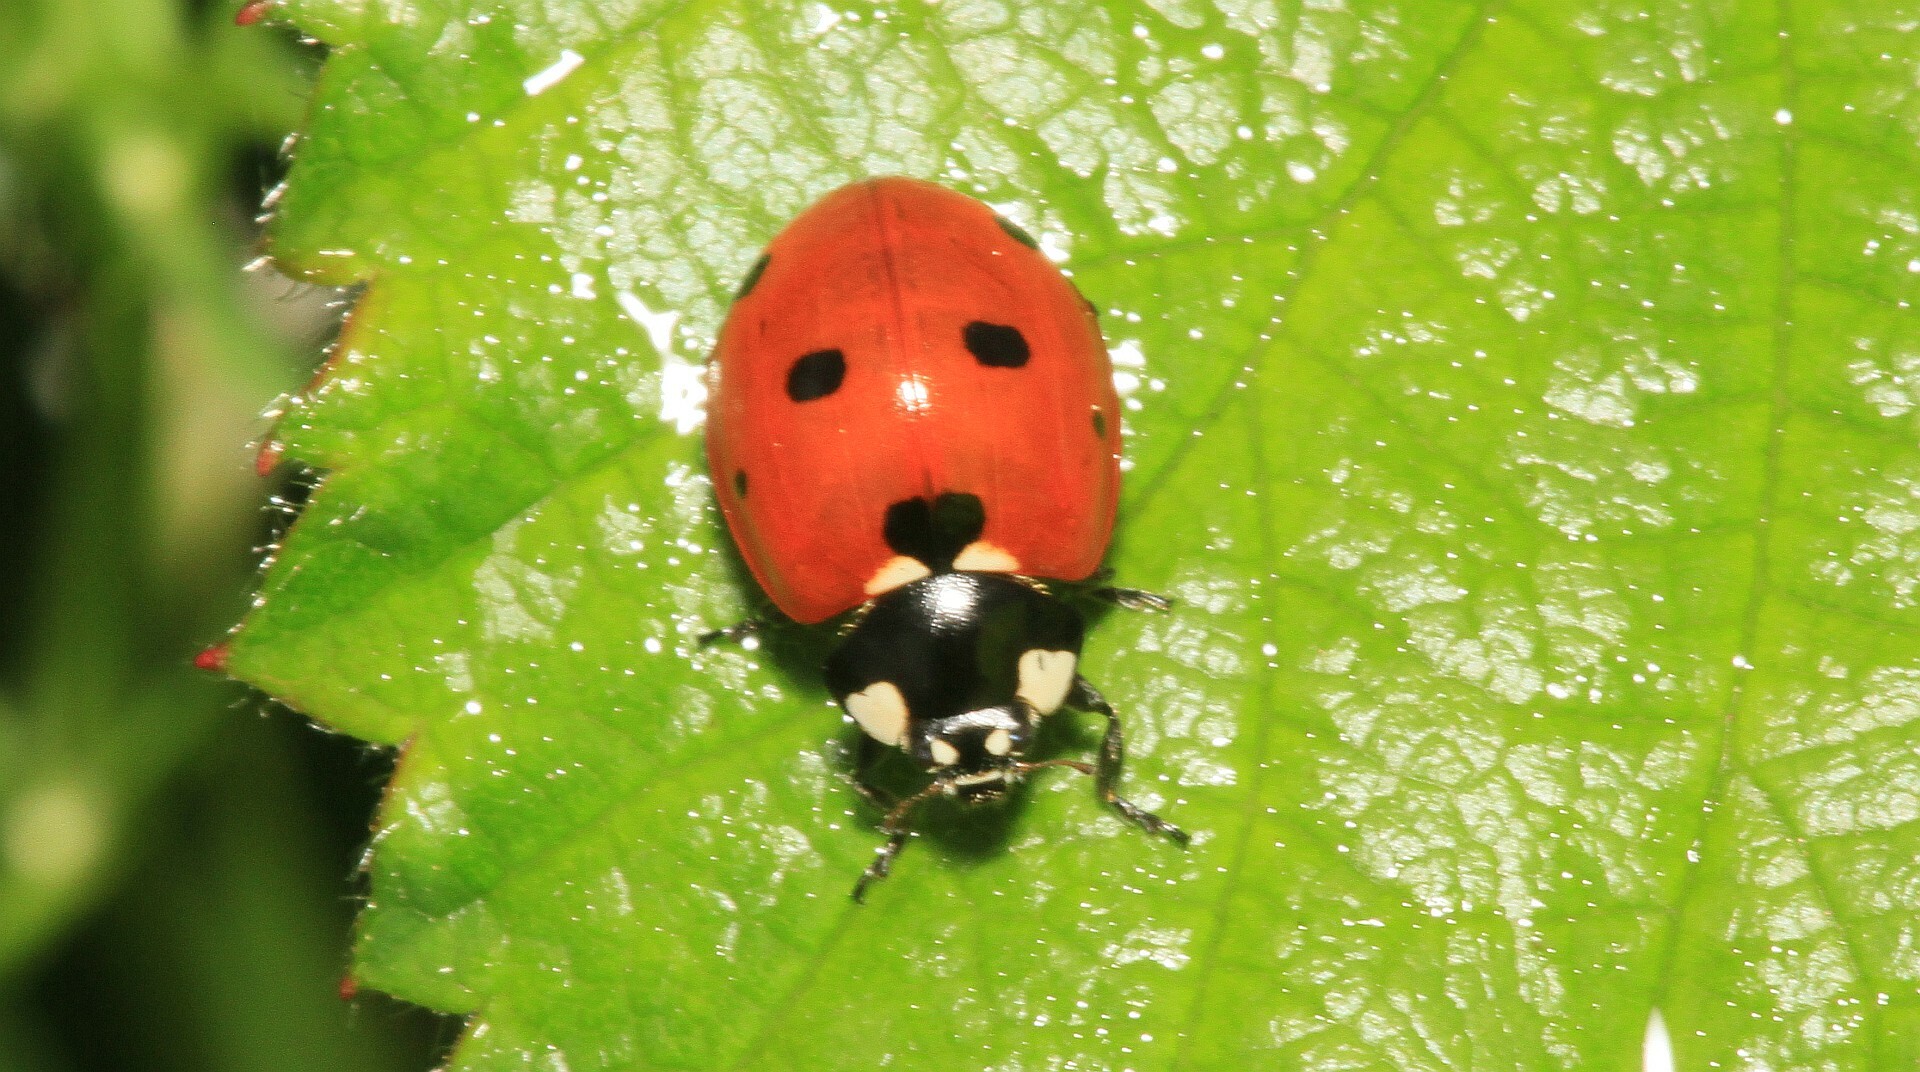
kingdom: Animalia
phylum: Arthropoda
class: Insecta
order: Coleoptera
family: Coccinellidae
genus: Coccinella
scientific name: Coccinella septempunctata
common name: Sevenspotted lady beetle
